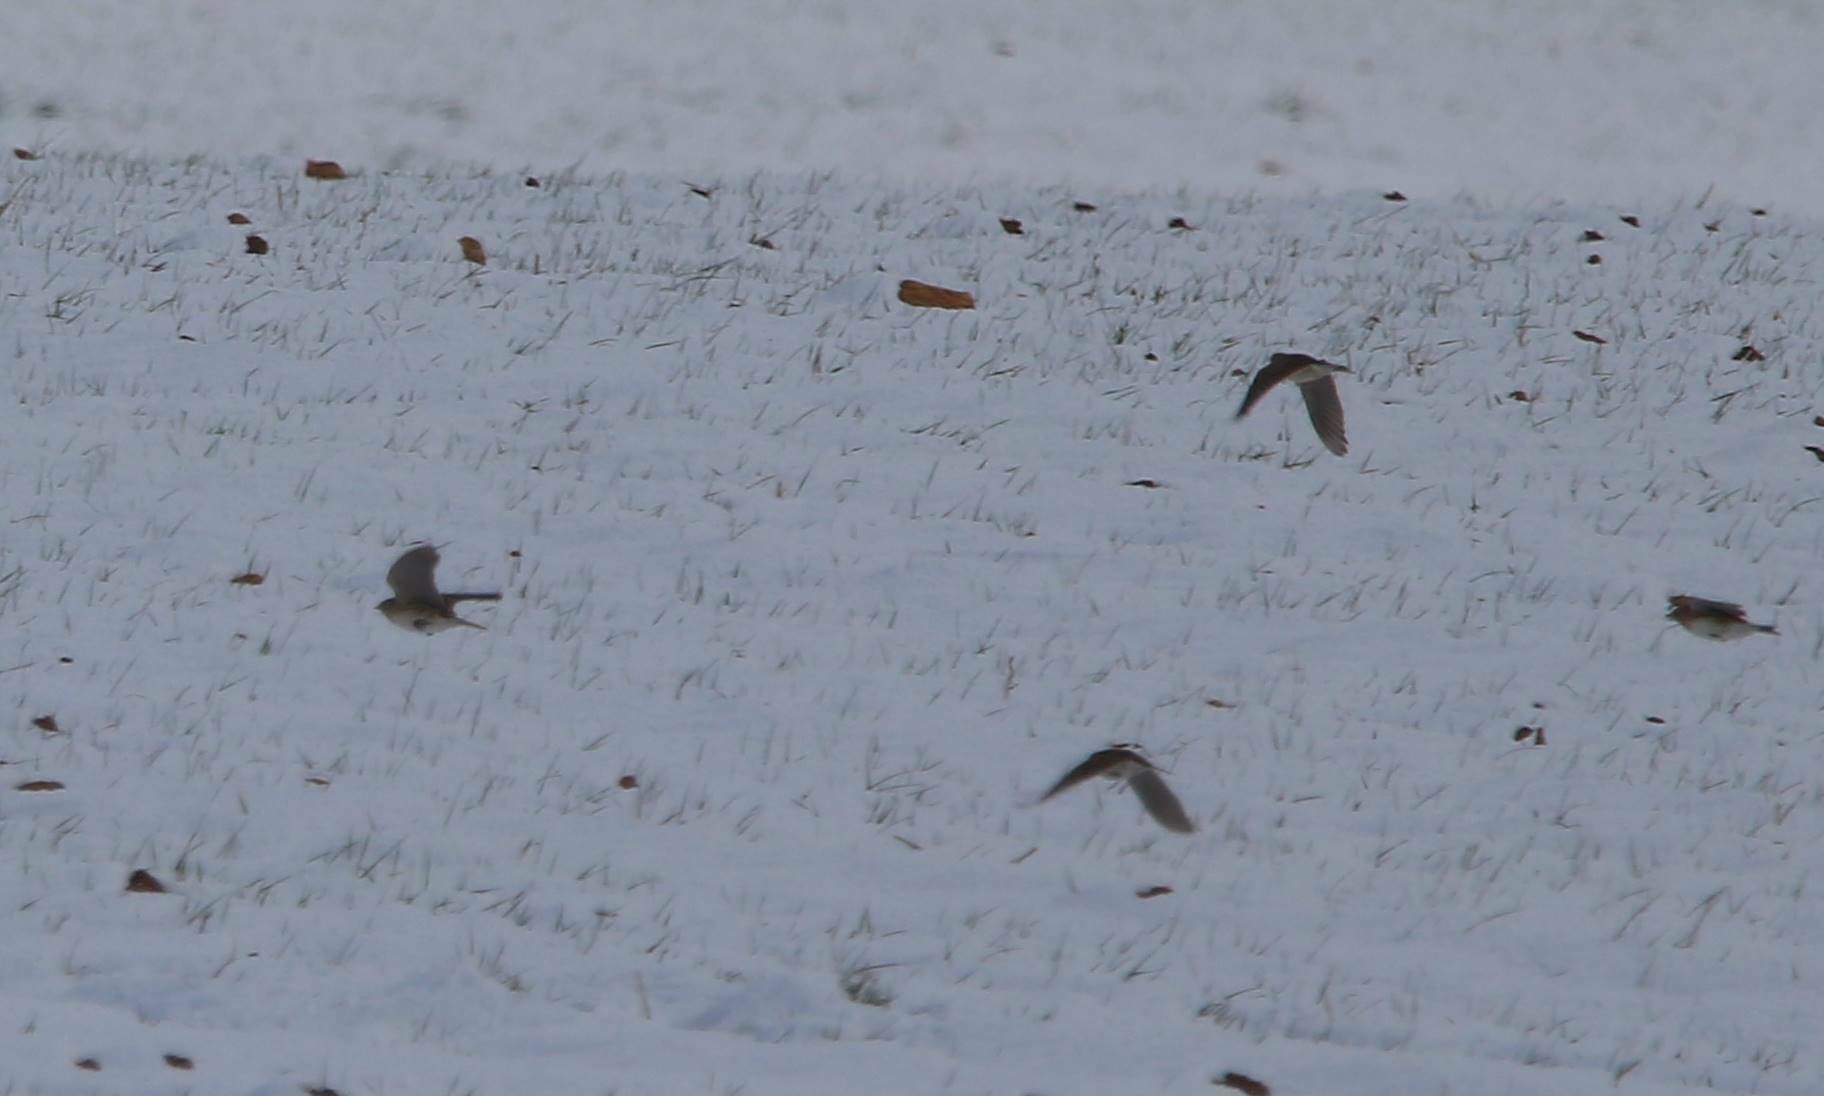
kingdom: Animalia
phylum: Chordata
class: Aves
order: Passeriformes
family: Alaudidae
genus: Alauda
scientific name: Alauda arvensis
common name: Eurasian skylark
